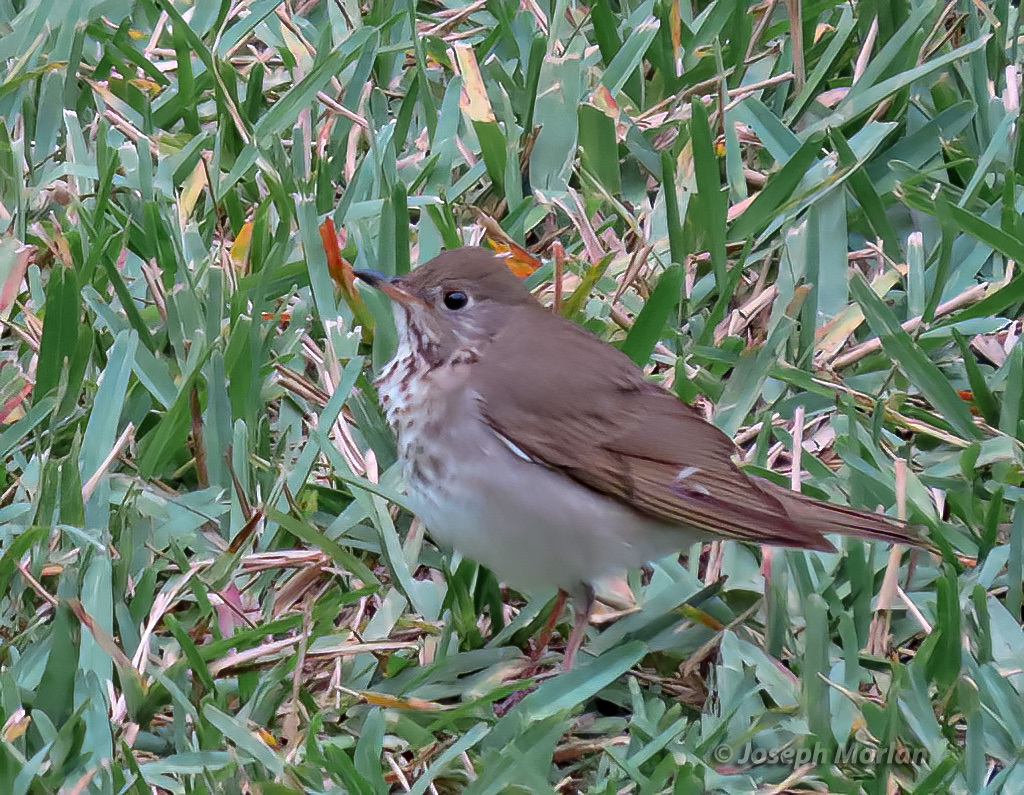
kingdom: Animalia
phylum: Chordata
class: Aves
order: Passeriformes
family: Turdidae
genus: Catharus
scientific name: Catharus minimus
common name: Grey-cheeked thrush
